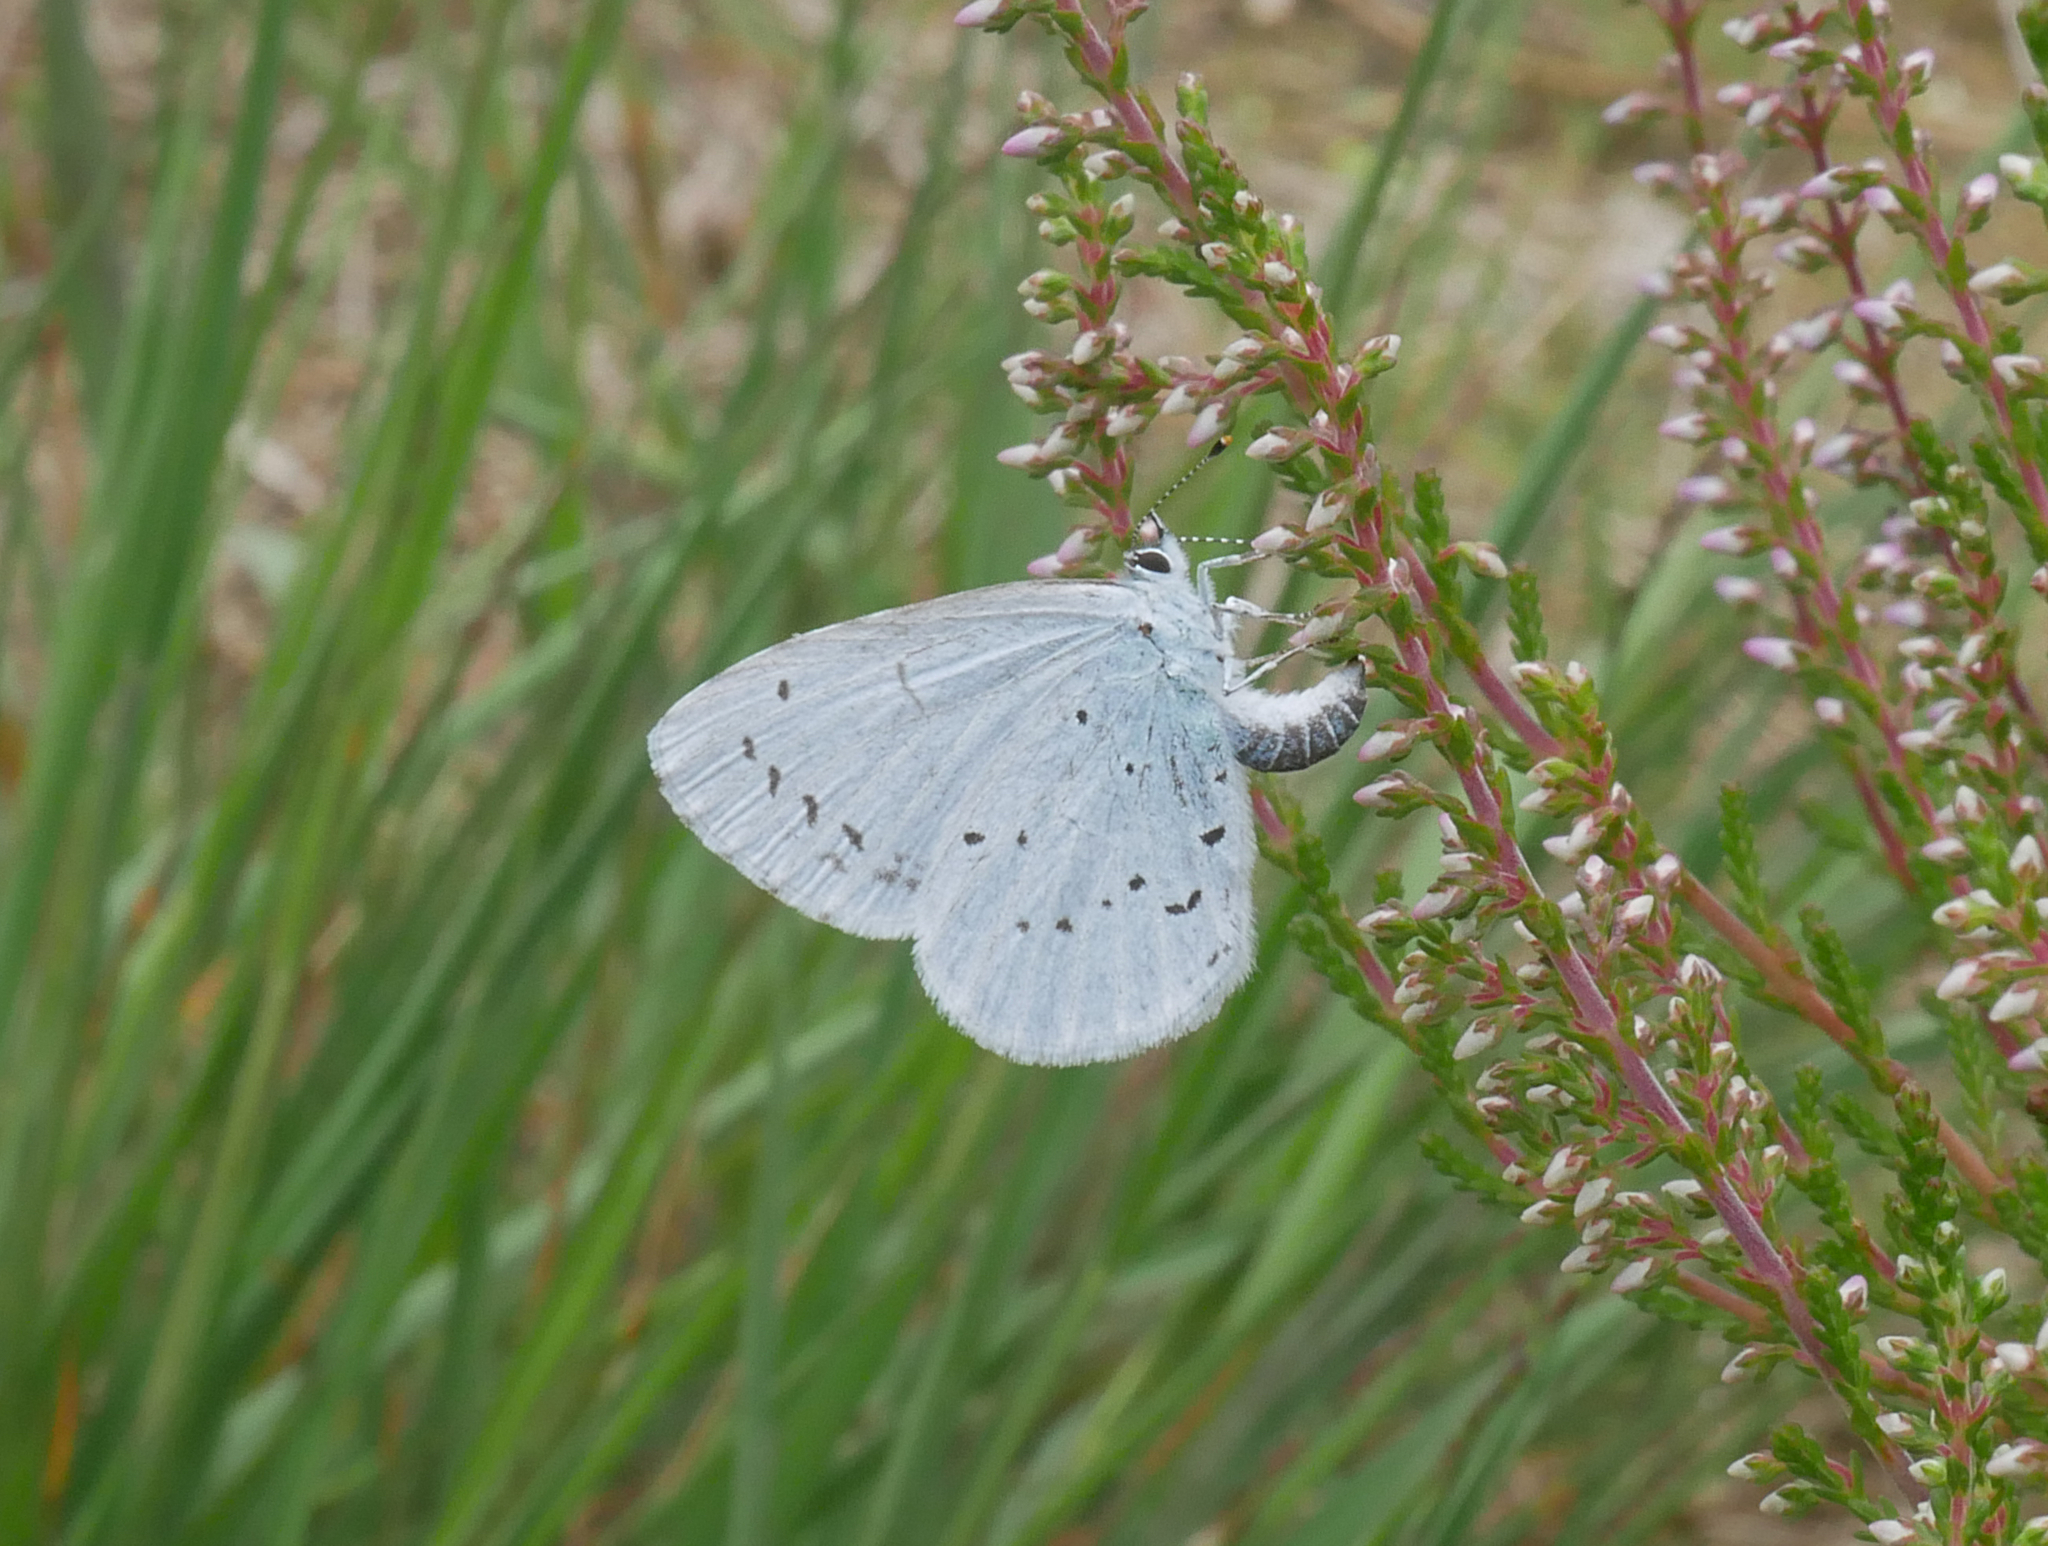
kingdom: Animalia
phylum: Arthropoda
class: Insecta
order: Lepidoptera
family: Lycaenidae
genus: Celastrina
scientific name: Celastrina argiolus
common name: Holly blue
